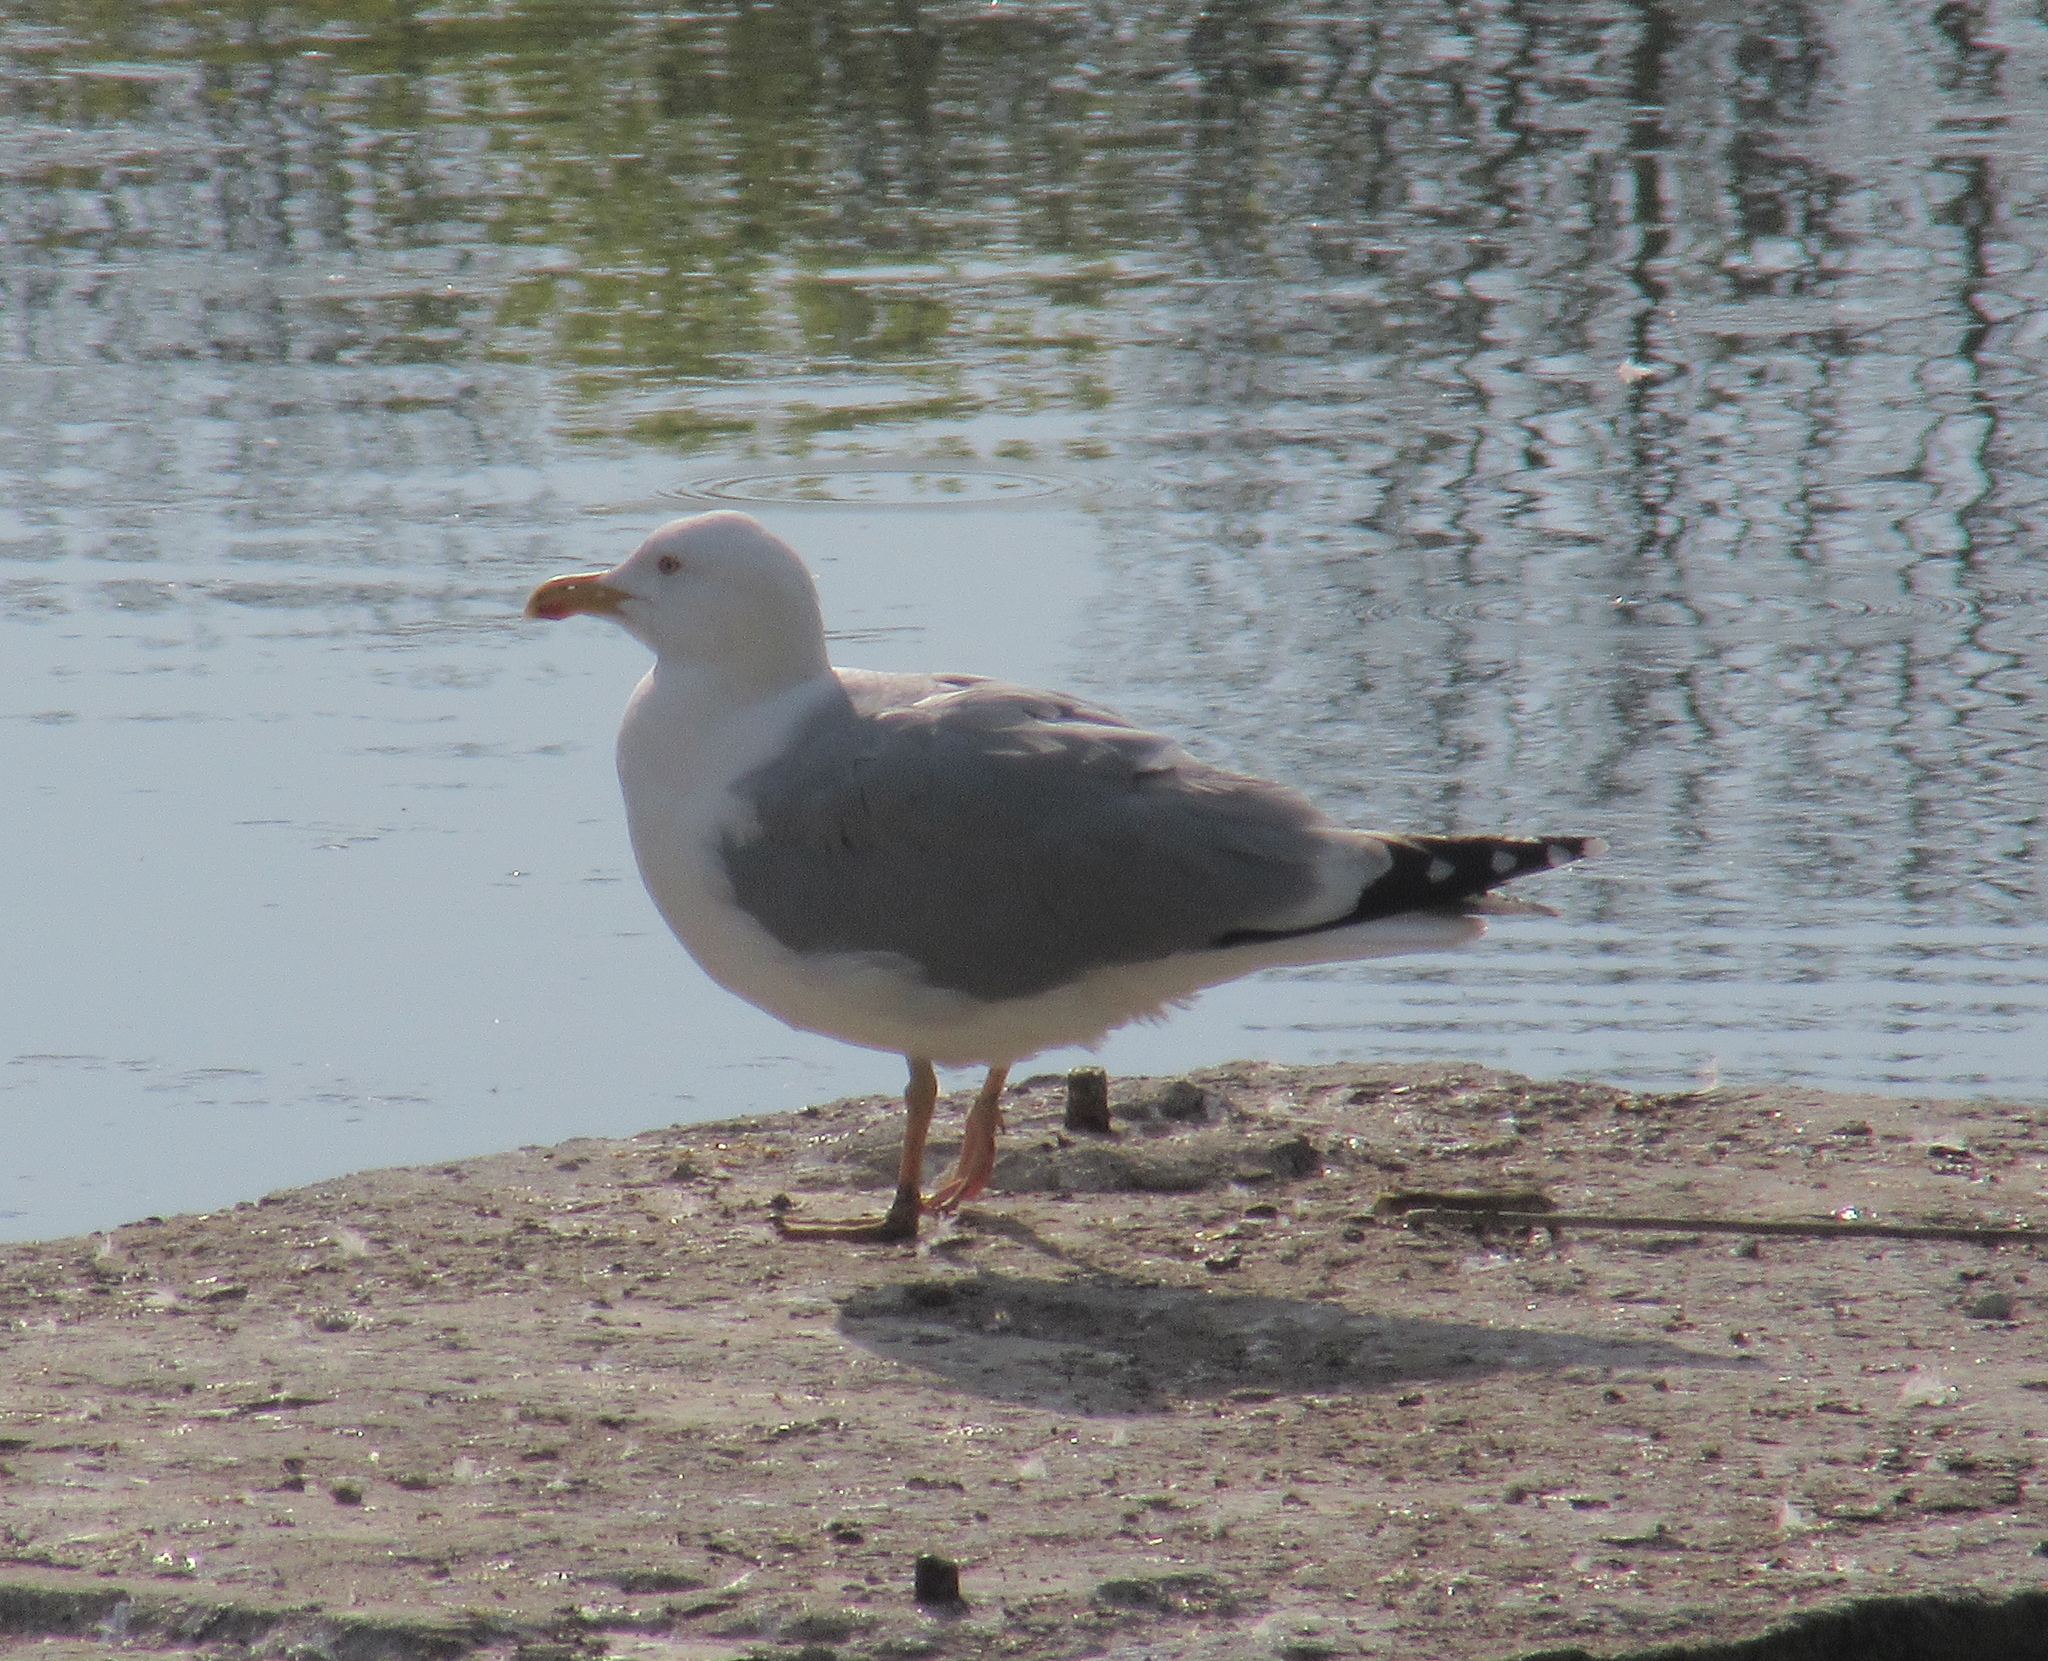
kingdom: Animalia
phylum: Chordata
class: Aves
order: Charadriiformes
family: Laridae
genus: Larus
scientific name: Larus argentatus
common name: Herring gull
